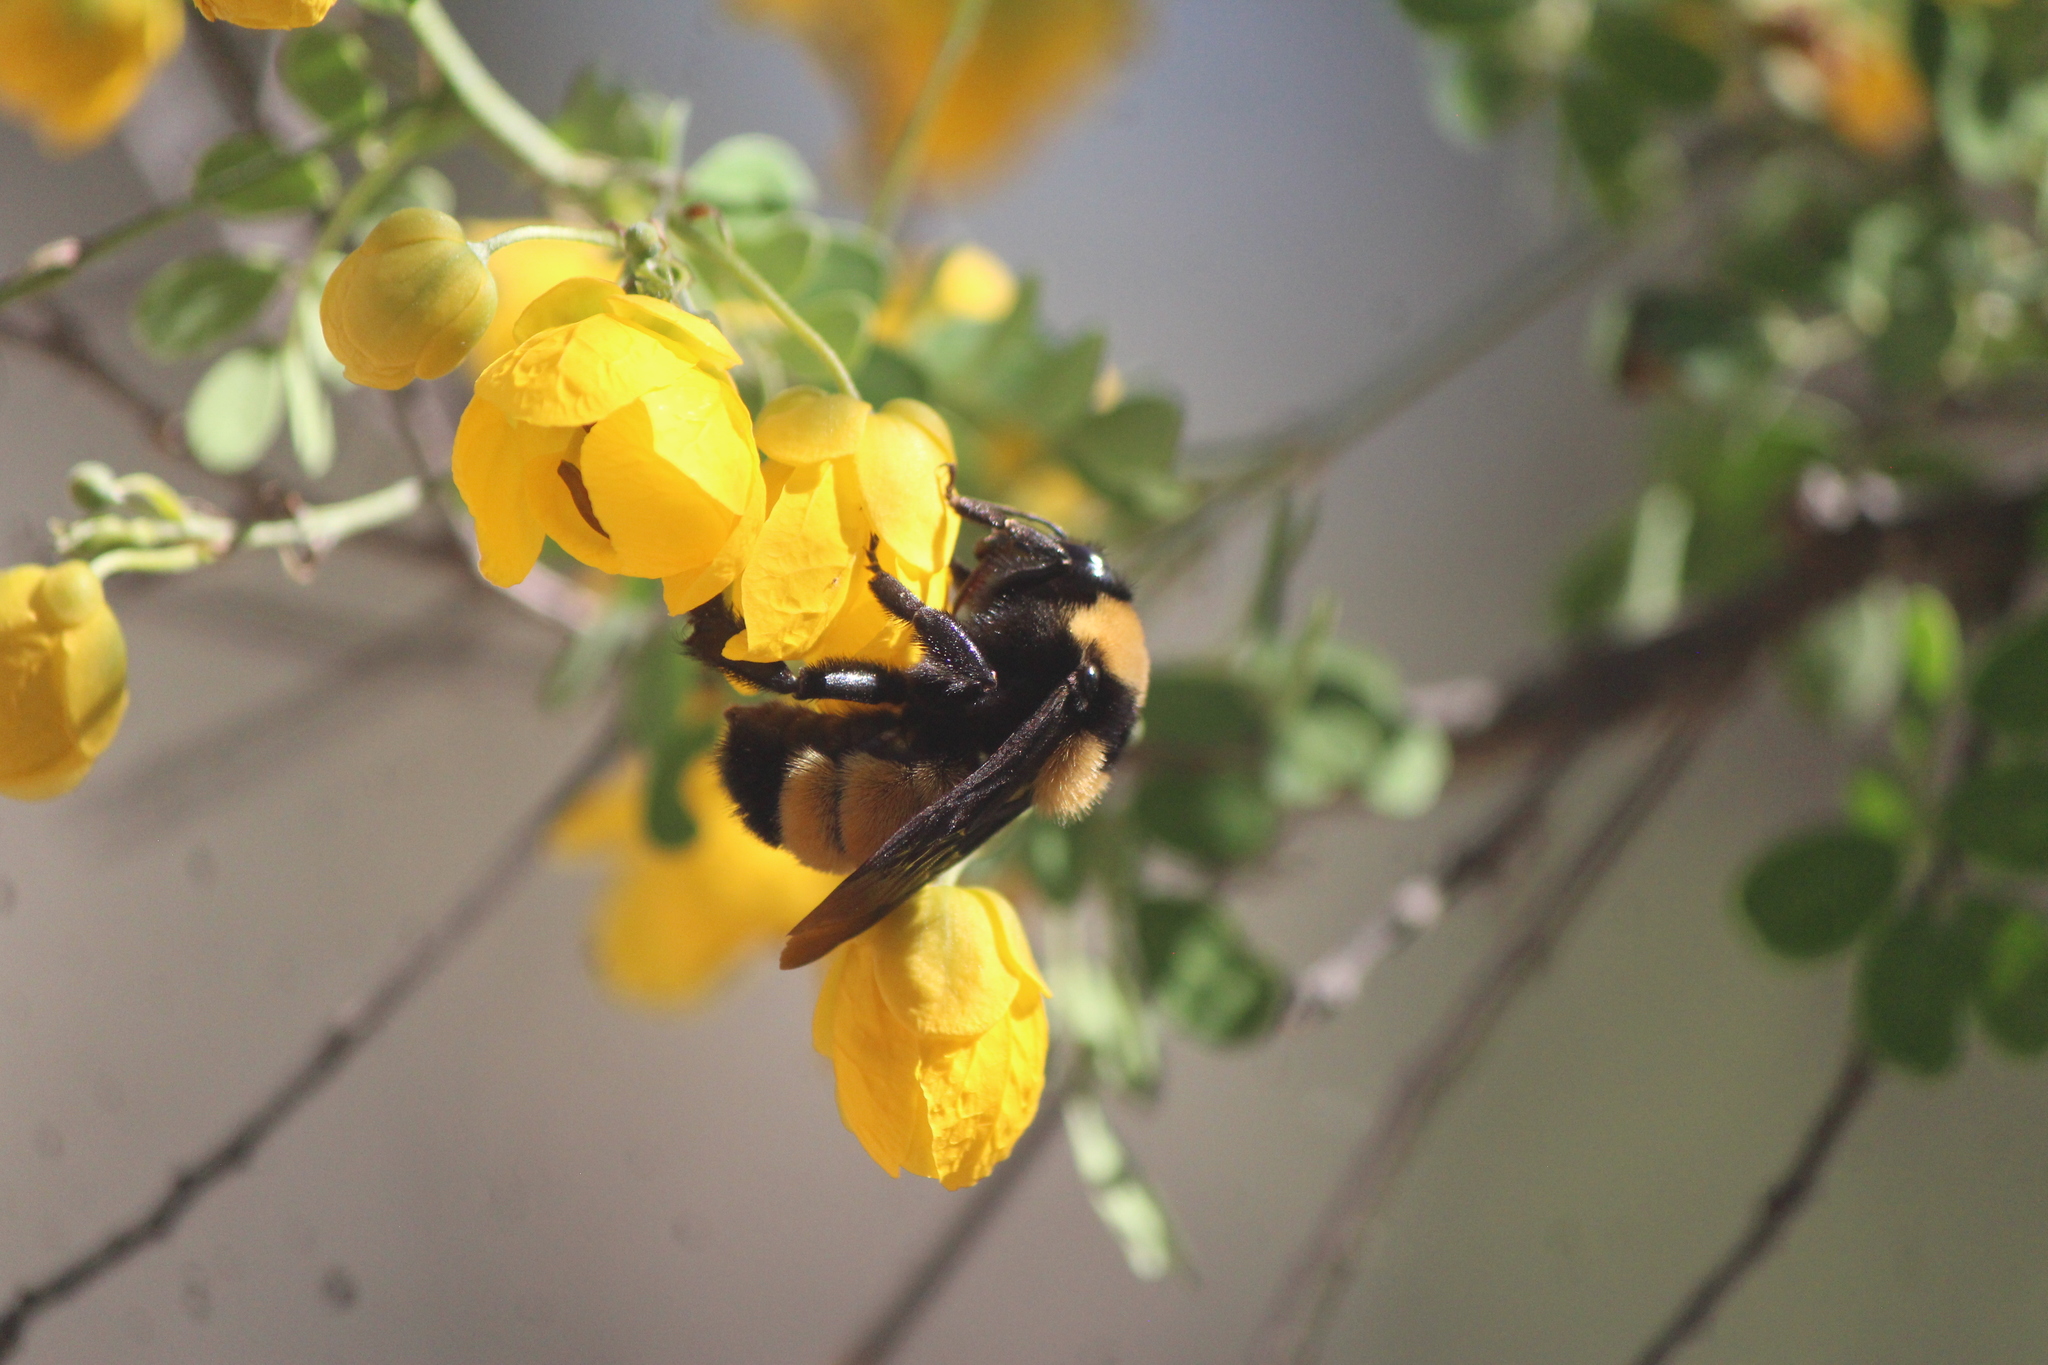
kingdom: Animalia
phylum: Arthropoda
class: Insecta
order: Hymenoptera
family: Apidae
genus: Bombus
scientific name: Bombus sonorus
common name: Sonoran bumble bee
